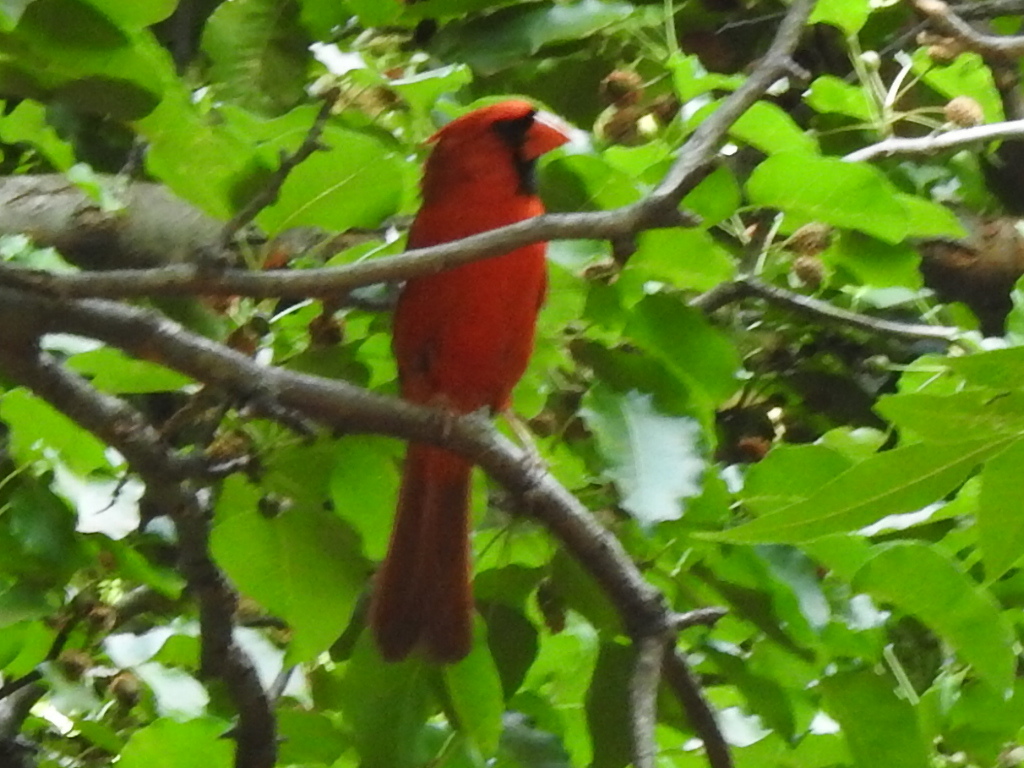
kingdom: Animalia
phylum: Chordata
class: Aves
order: Passeriformes
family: Cardinalidae
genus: Cardinalis
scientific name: Cardinalis cardinalis
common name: Northern cardinal
